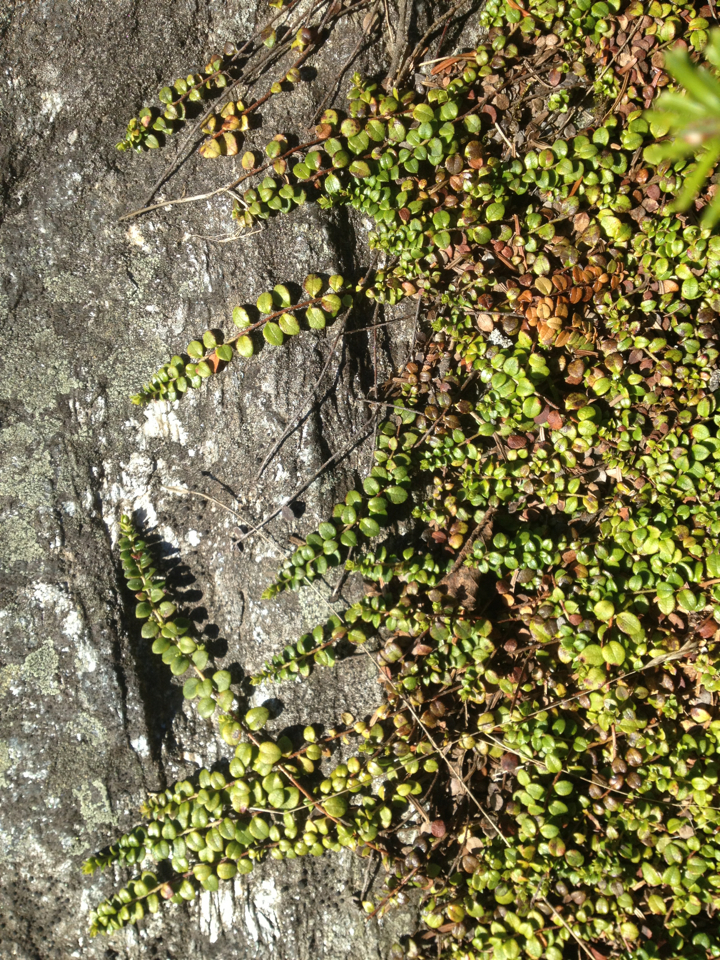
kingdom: Plantae
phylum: Tracheophyta
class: Magnoliopsida
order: Ericales
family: Ericaceae
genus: Gaultheria
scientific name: Gaultheria hispidula
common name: Cancer wintergreen
